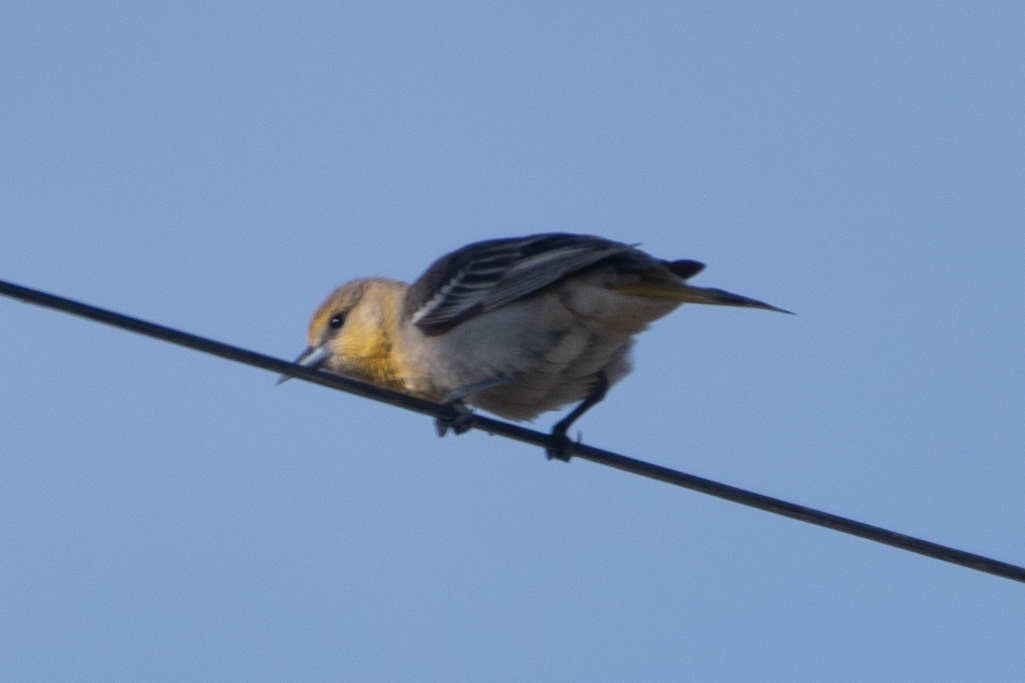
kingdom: Animalia
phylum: Chordata
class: Aves
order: Passeriformes
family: Icteridae
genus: Icterus
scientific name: Icterus bullockii
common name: Bullock's oriole
